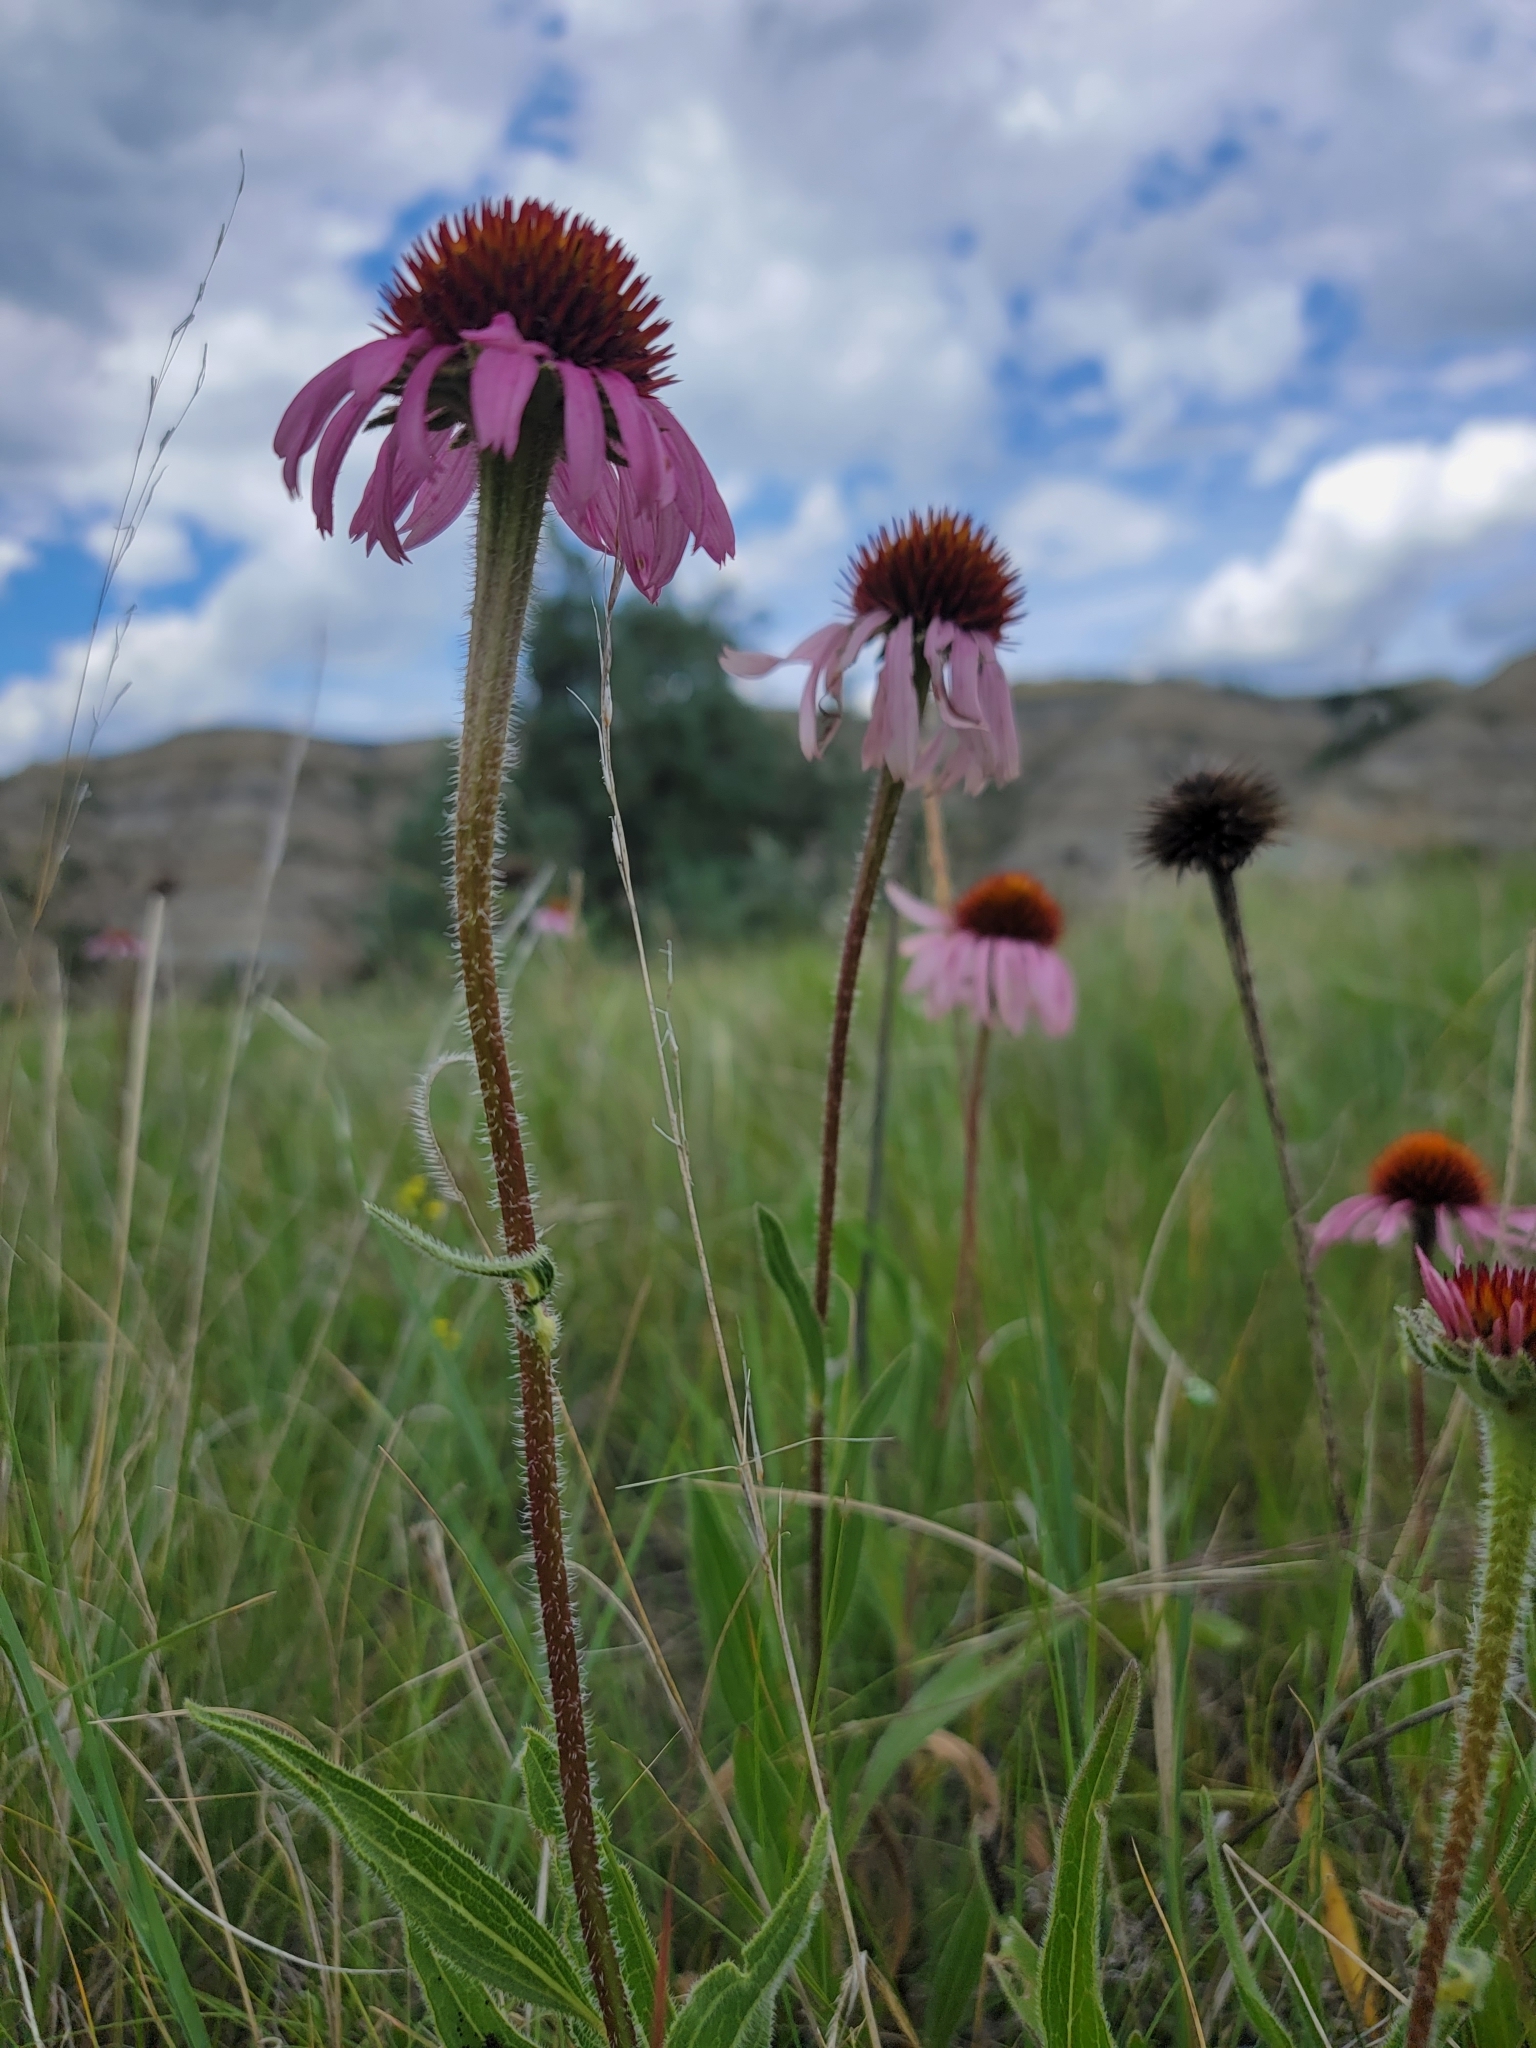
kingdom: Plantae
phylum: Tracheophyta
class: Magnoliopsida
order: Asterales
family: Asteraceae
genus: Echinacea
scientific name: Echinacea angustifolia
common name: Black-sampson echinacea
